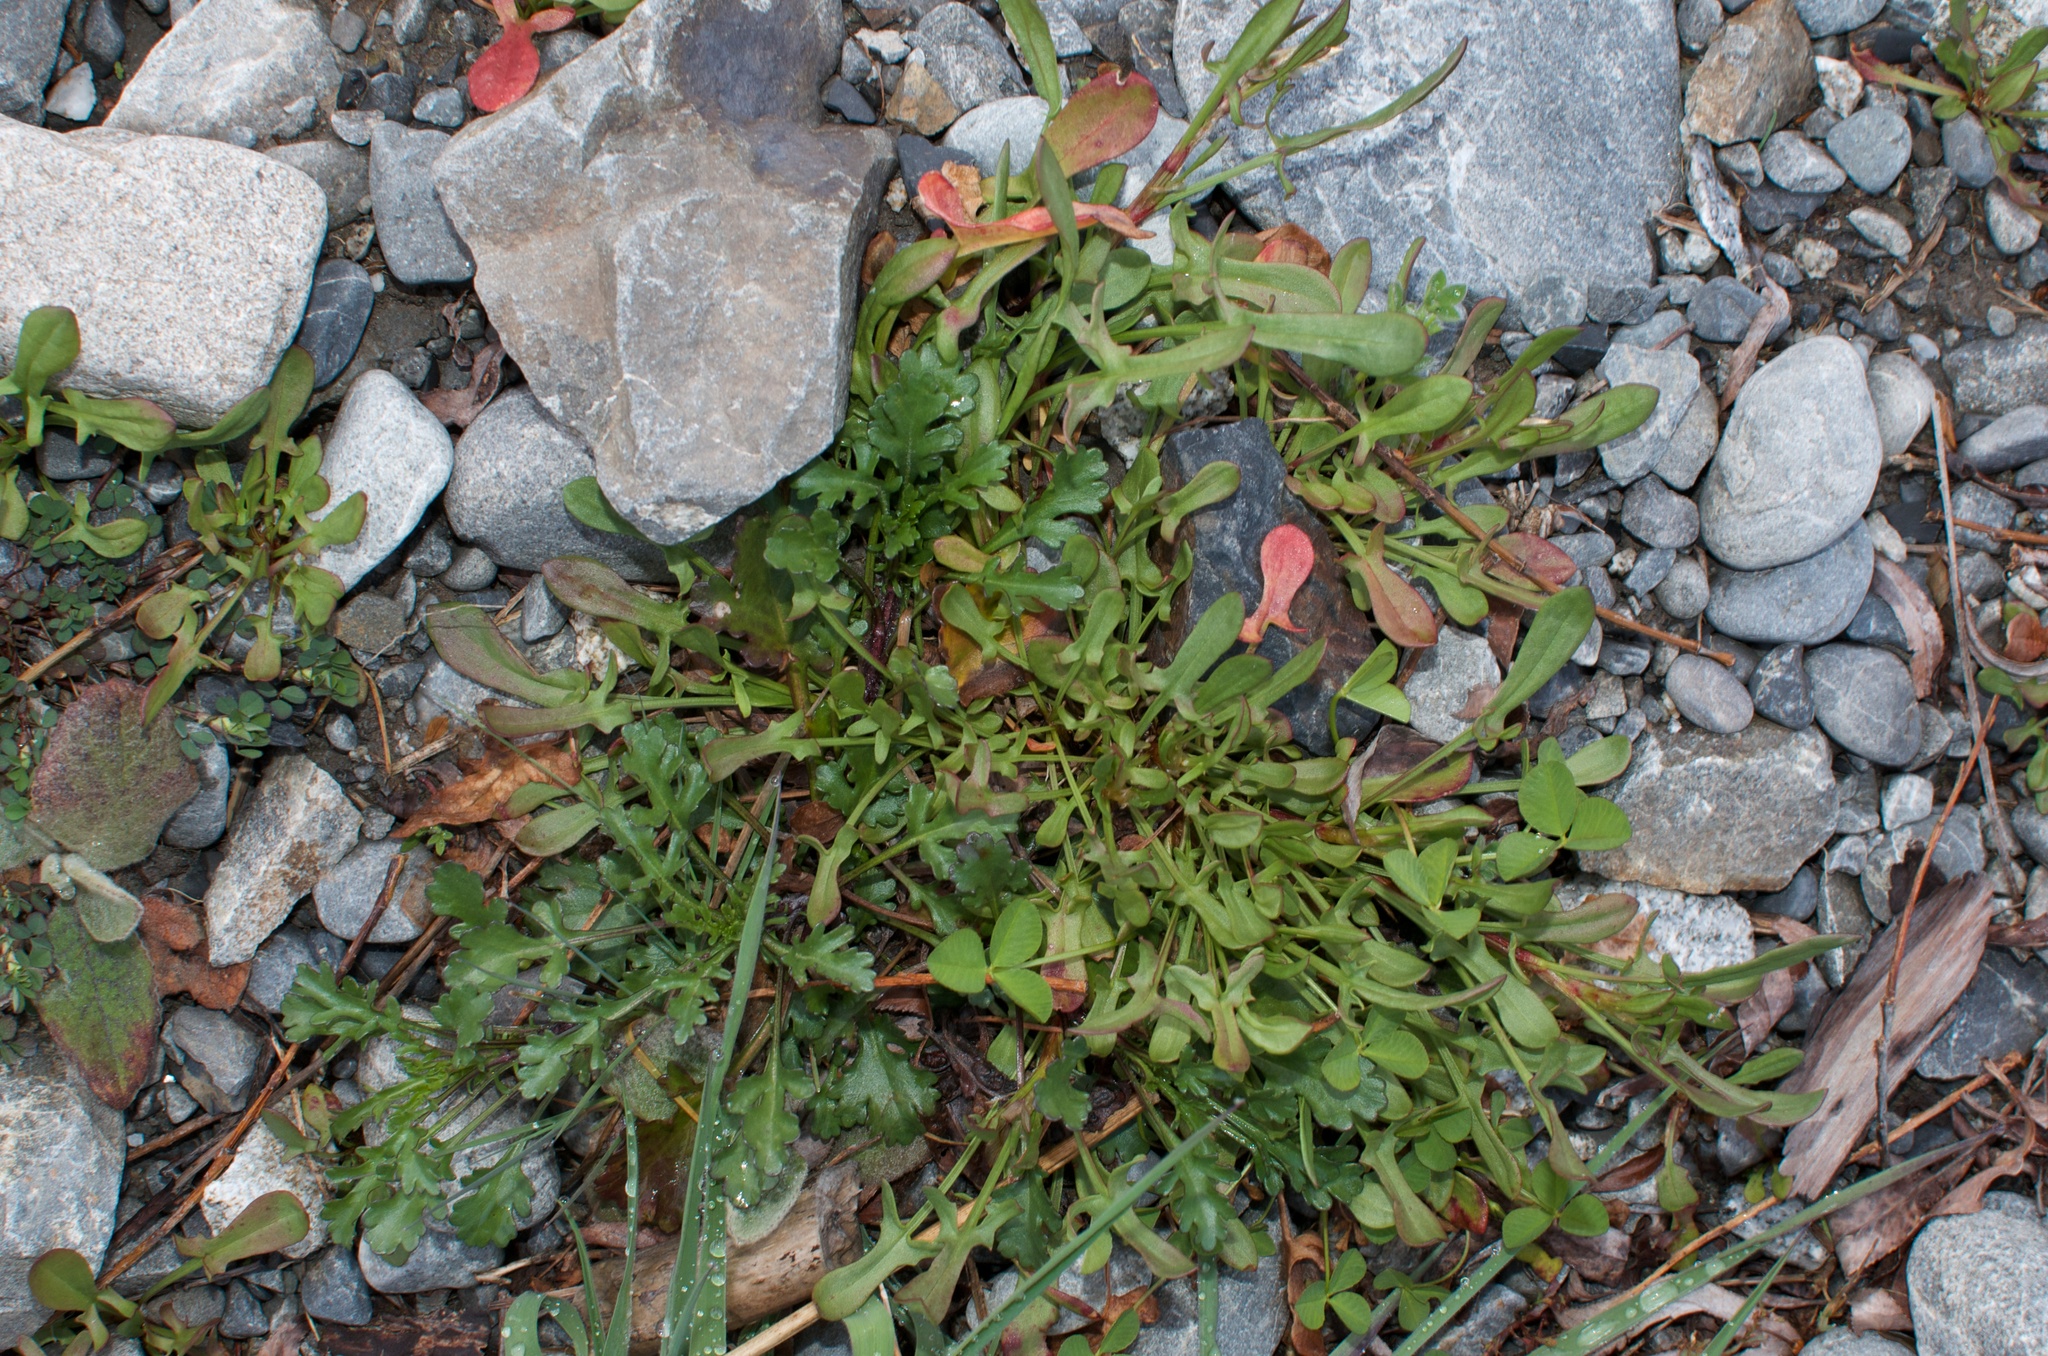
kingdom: Plantae
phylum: Tracheophyta
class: Magnoliopsida
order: Caryophyllales
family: Polygonaceae
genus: Rumex
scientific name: Rumex acetosella
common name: Common sheep sorrel
